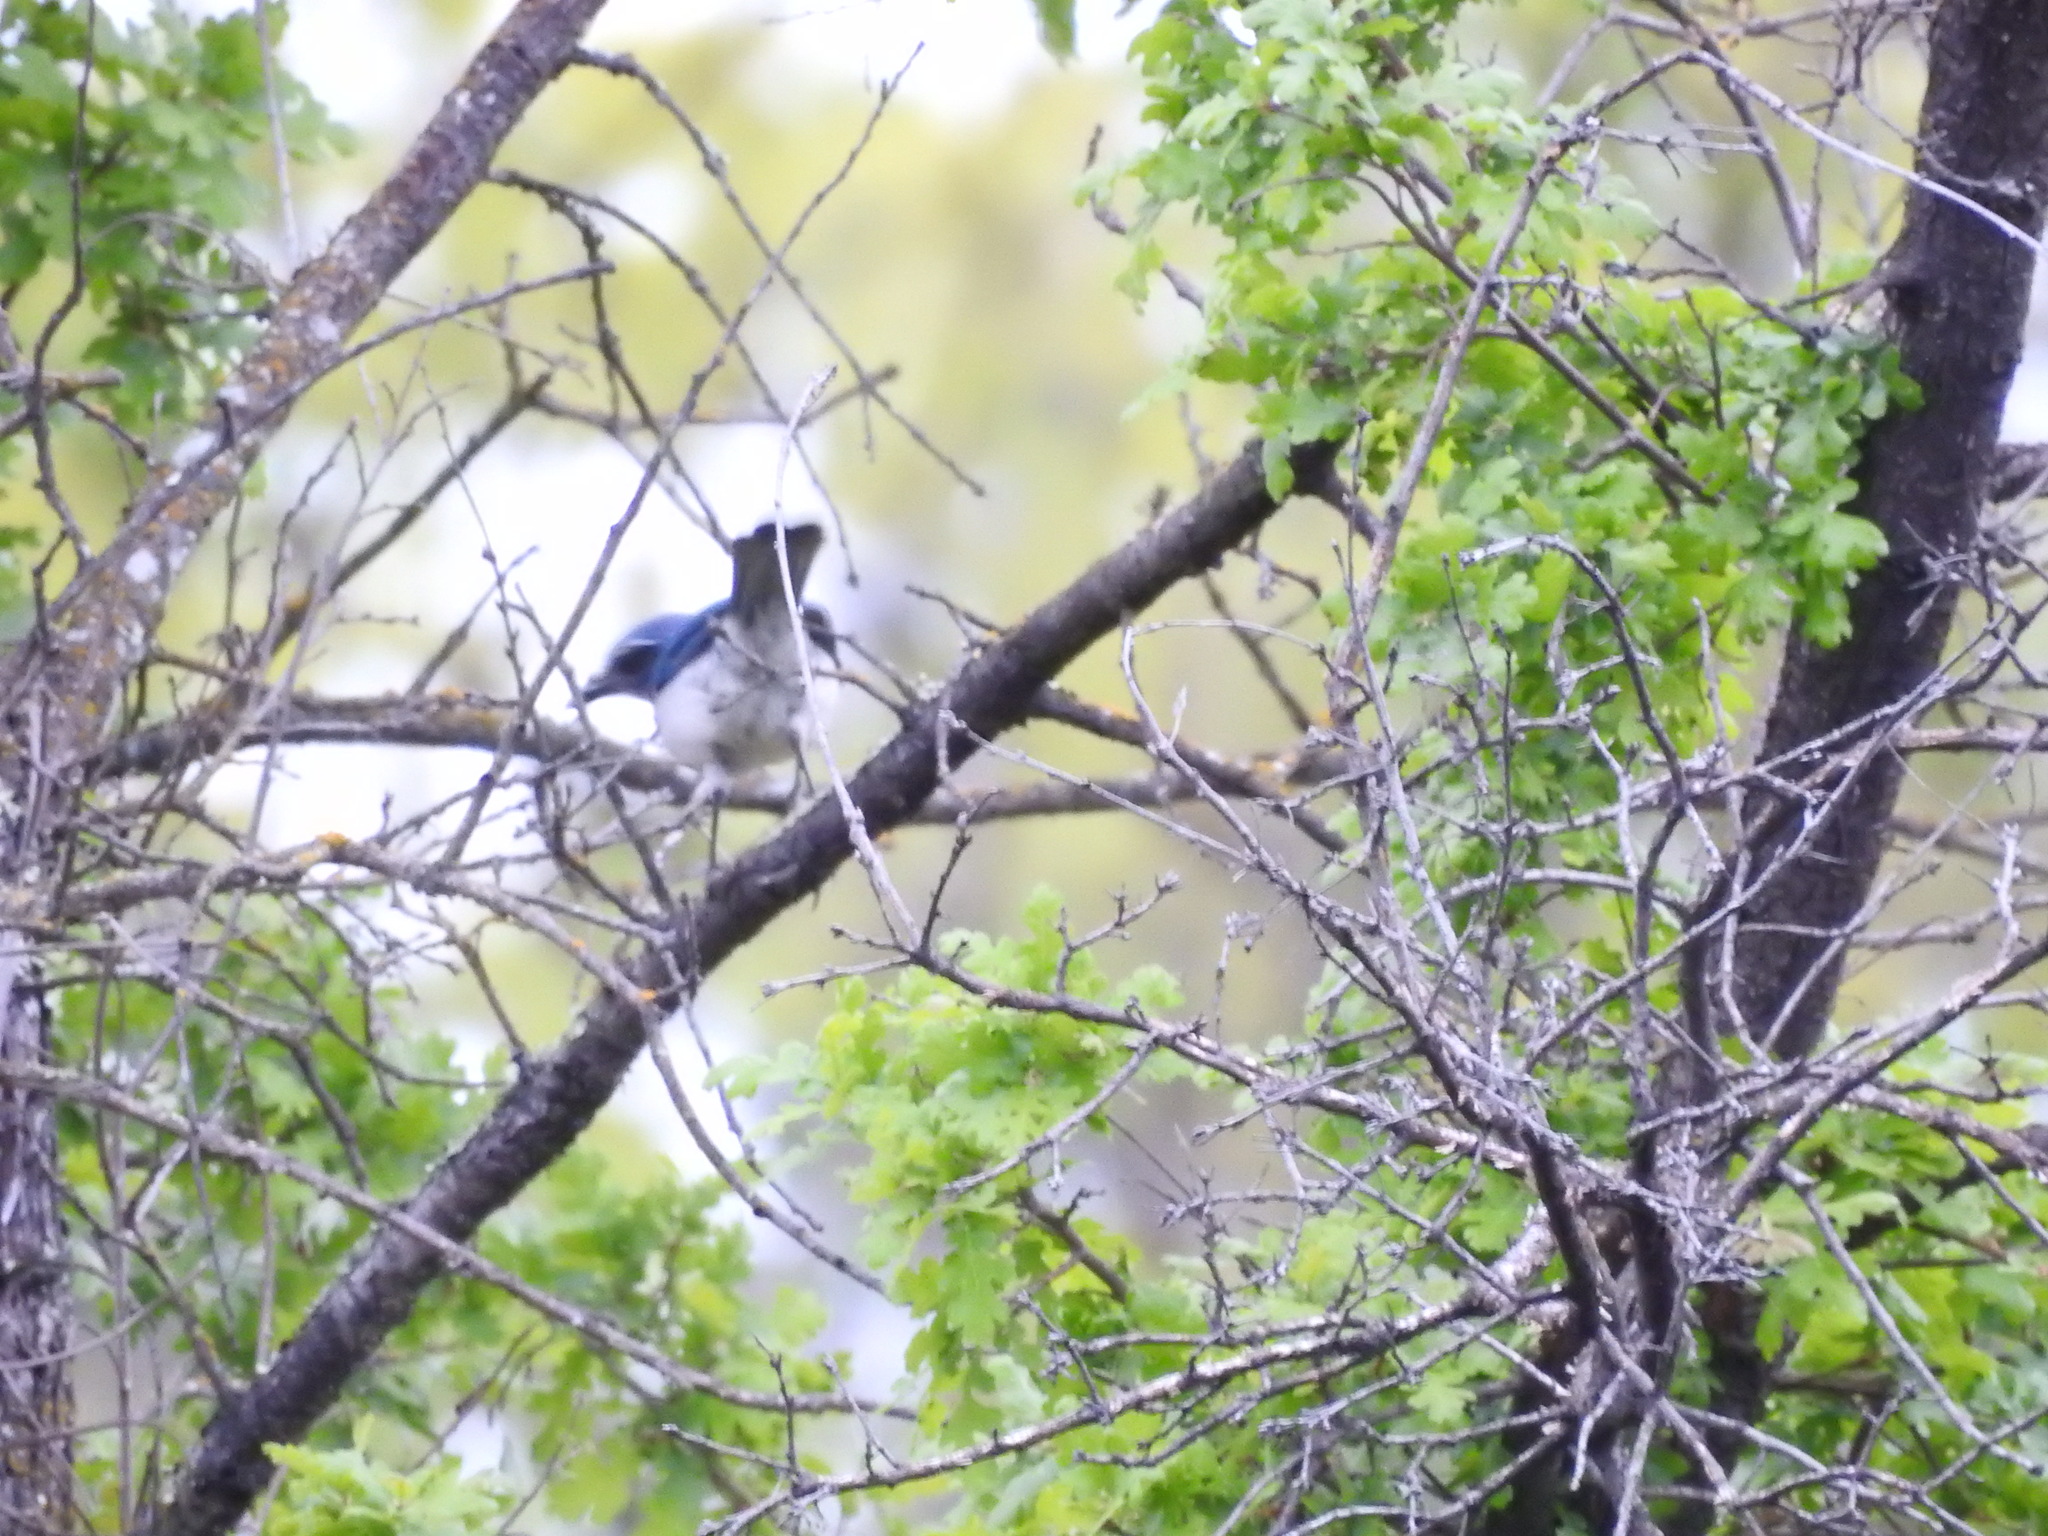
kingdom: Animalia
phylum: Chordata
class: Aves
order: Passeriformes
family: Corvidae
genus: Aphelocoma
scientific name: Aphelocoma californica
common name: California scrub-jay
